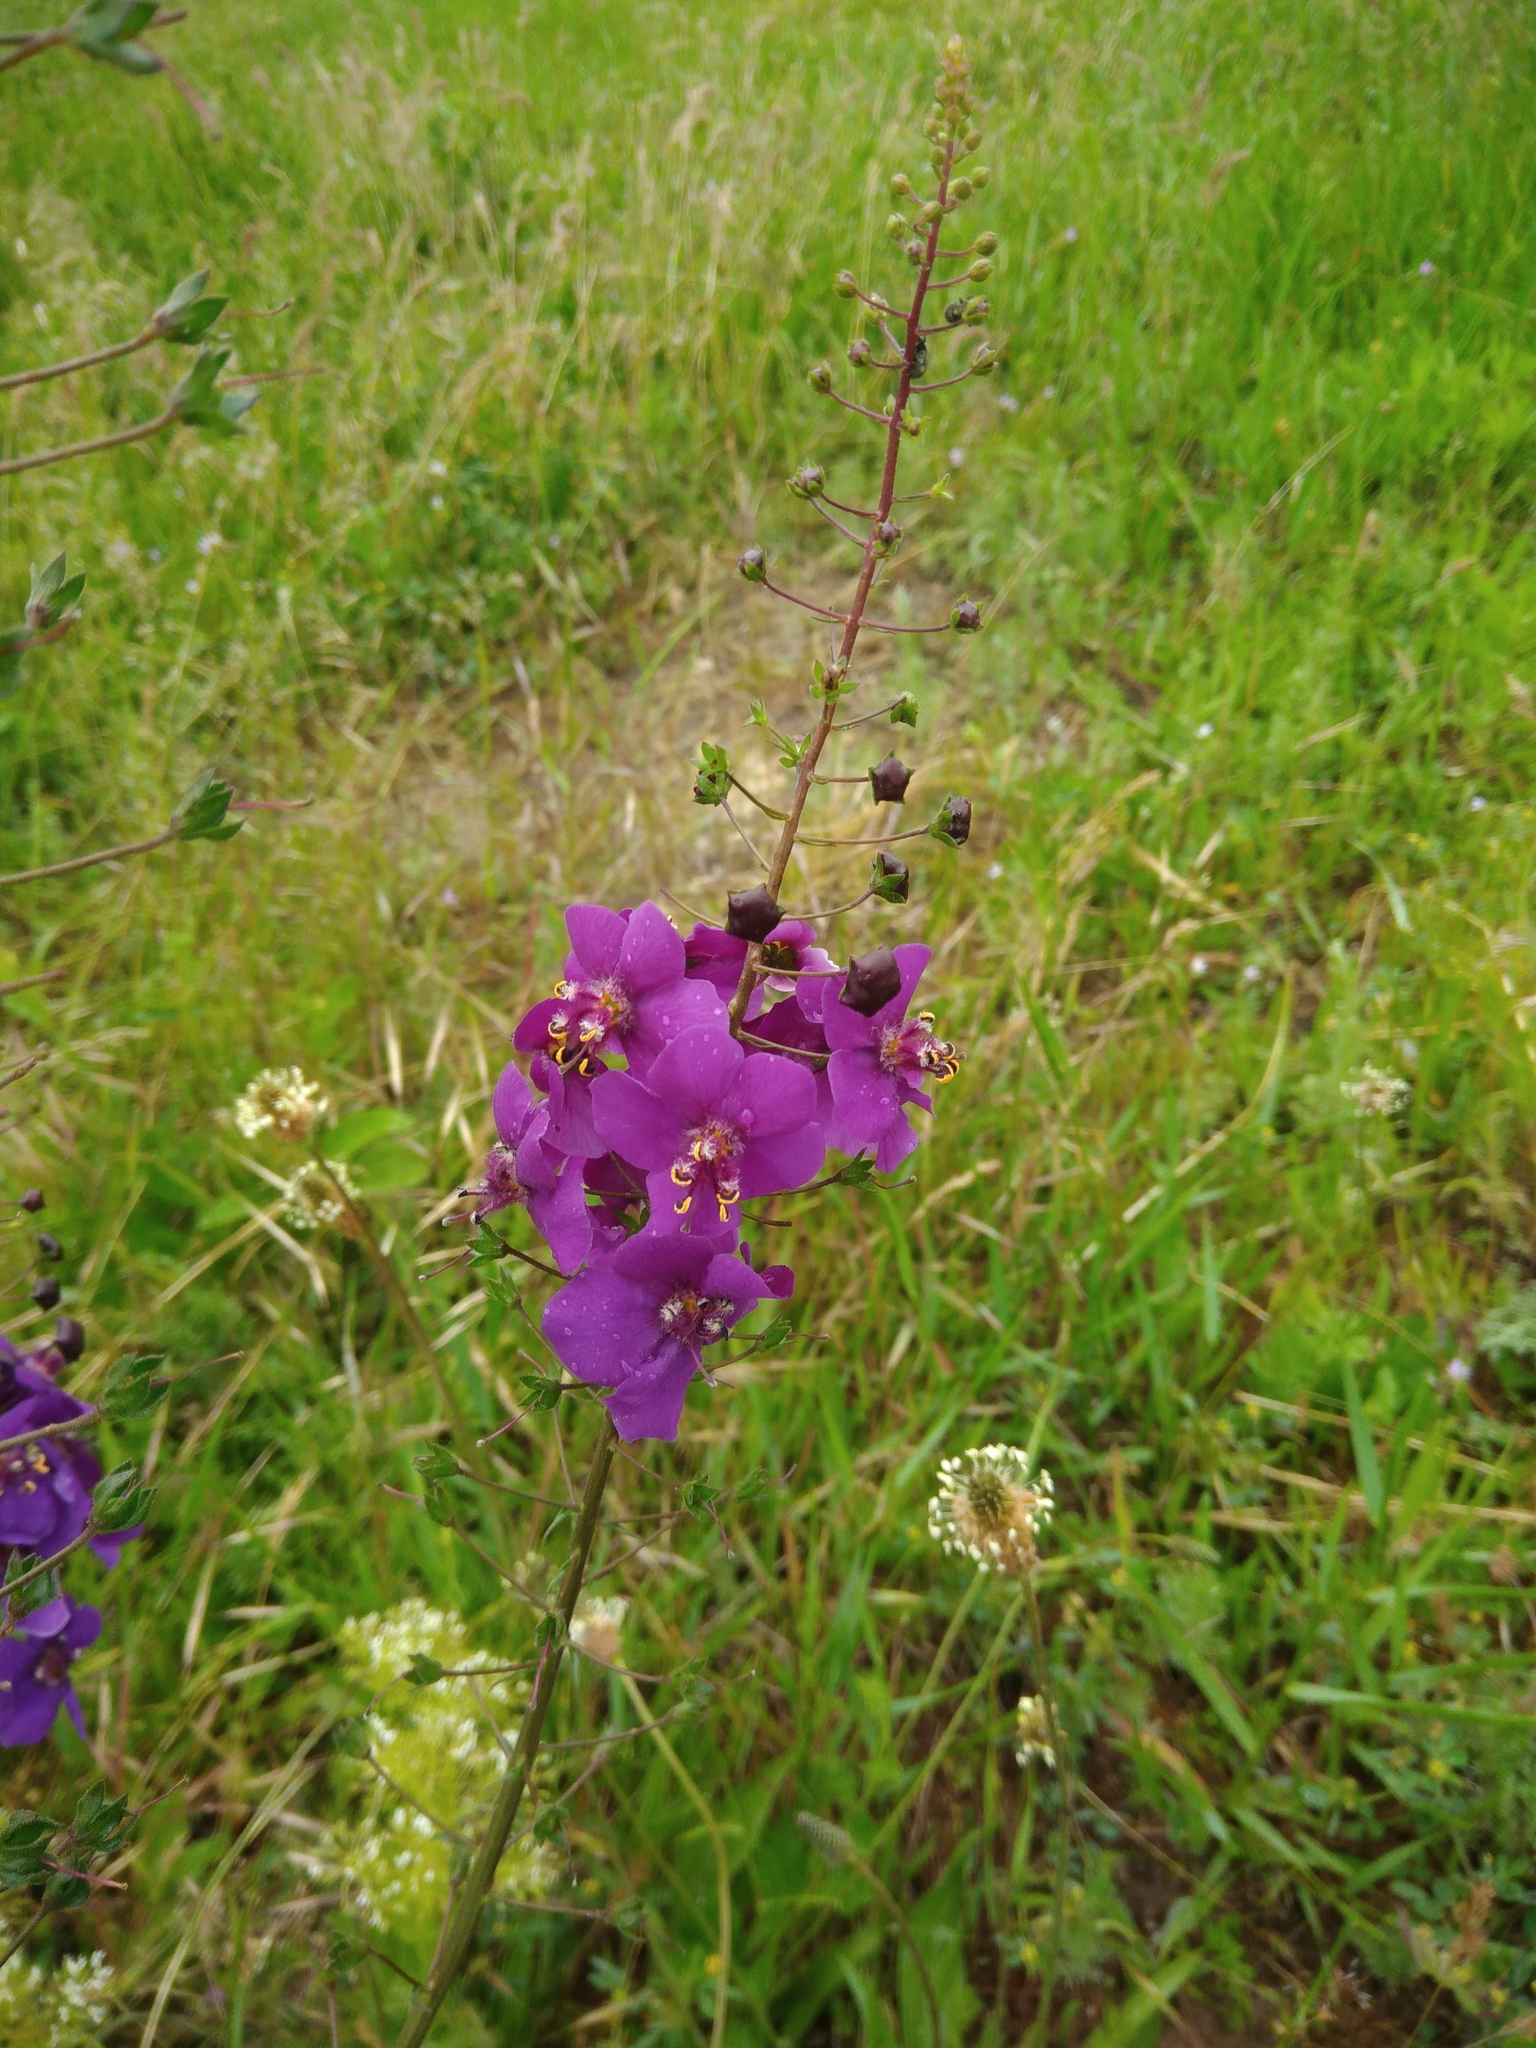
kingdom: Plantae
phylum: Tracheophyta
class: Magnoliopsida
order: Lamiales
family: Scrophulariaceae
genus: Verbascum
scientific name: Verbascum phoeniceum
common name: Purple mullein
